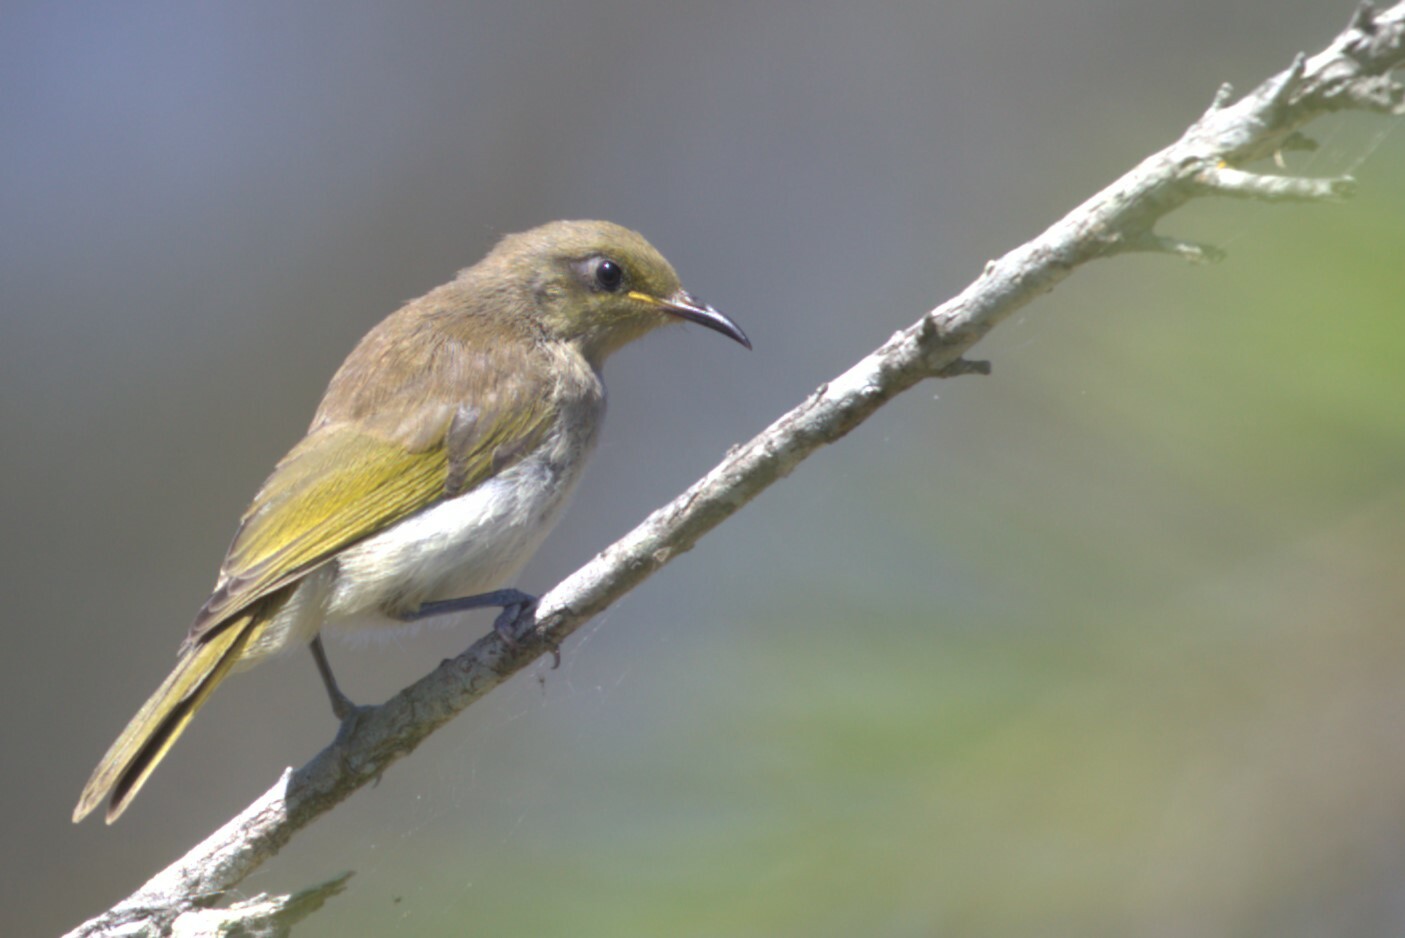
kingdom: Animalia
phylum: Chordata
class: Aves
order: Passeriformes
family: Meliphagidae
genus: Lichmera
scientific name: Lichmera indistincta
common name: Brown honeyeater
